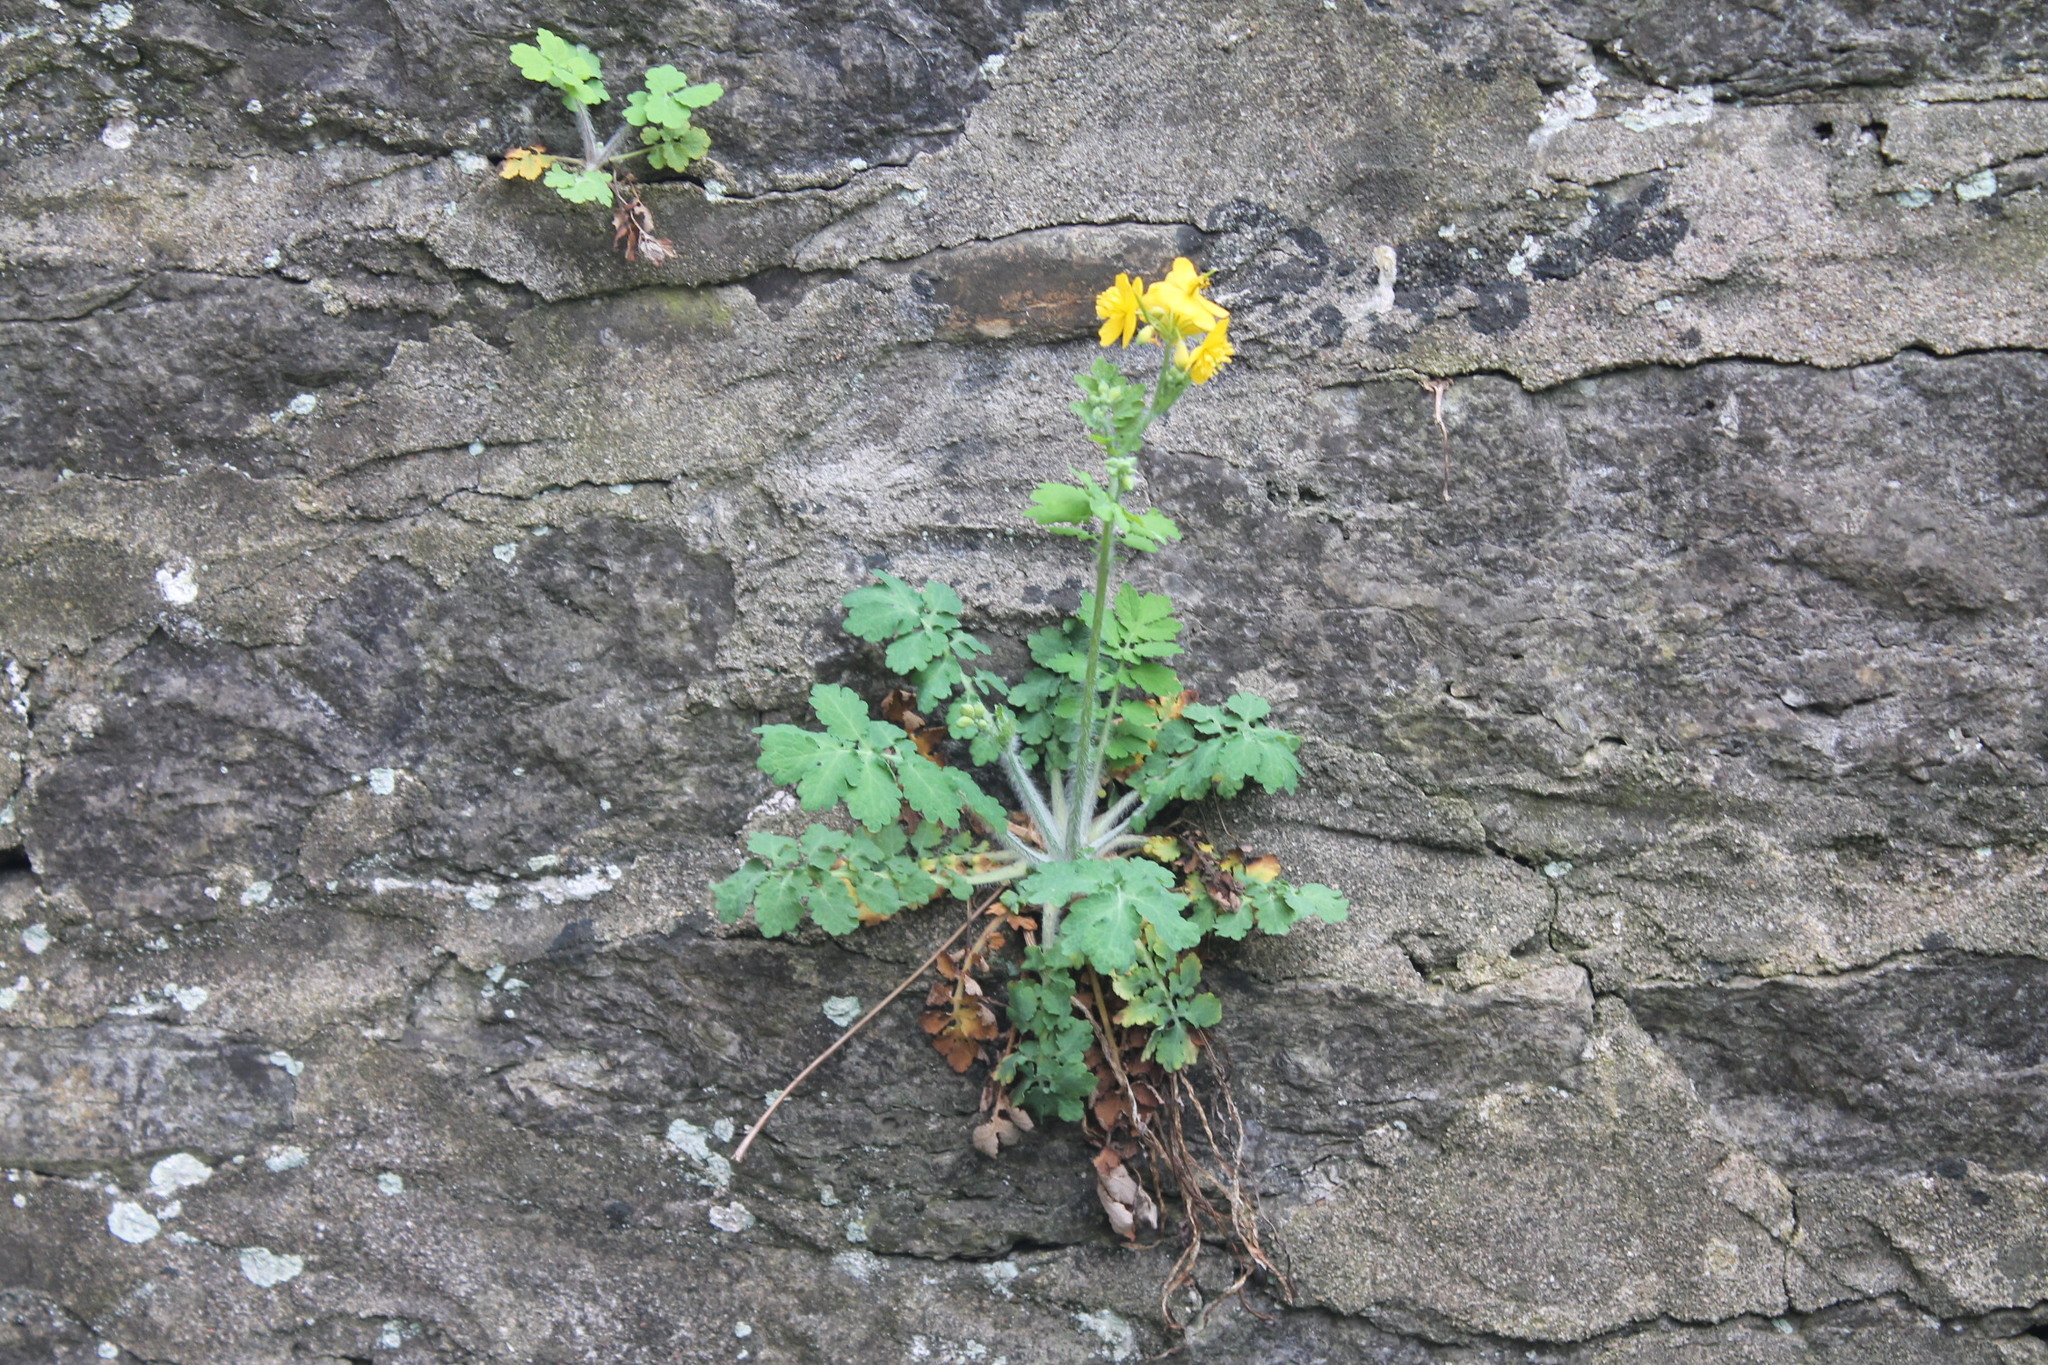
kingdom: Plantae
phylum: Tracheophyta
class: Magnoliopsida
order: Ranunculales
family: Papaveraceae
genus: Chelidonium
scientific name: Chelidonium majus
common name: Greater celandine
